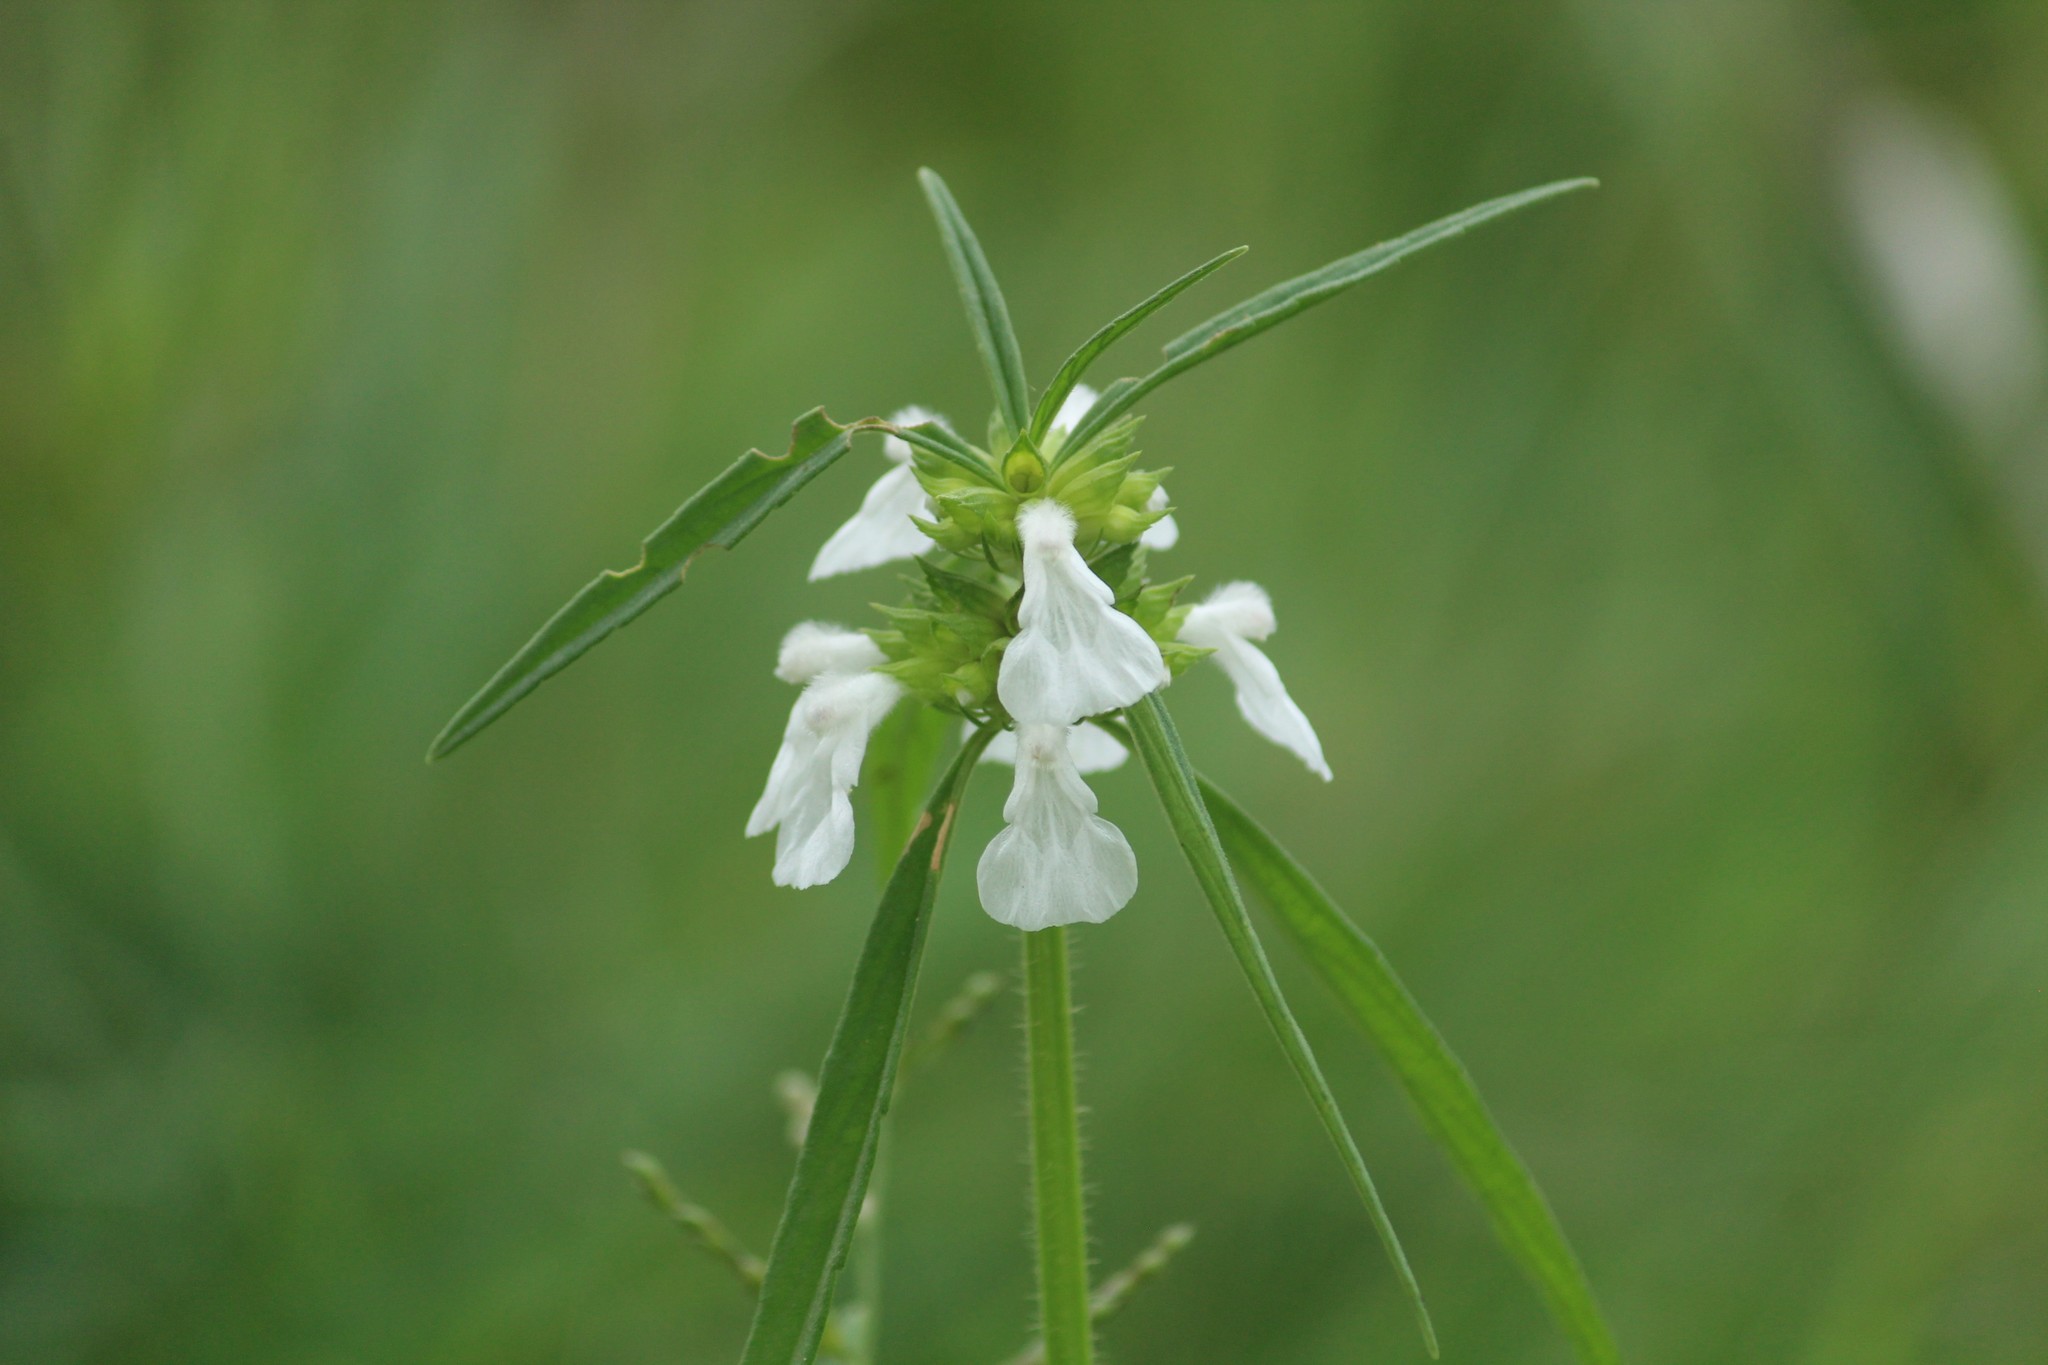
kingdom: Plantae
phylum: Tracheophyta
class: Magnoliopsida
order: Lamiales
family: Lamiaceae
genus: Leucas
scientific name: Leucas aspera
